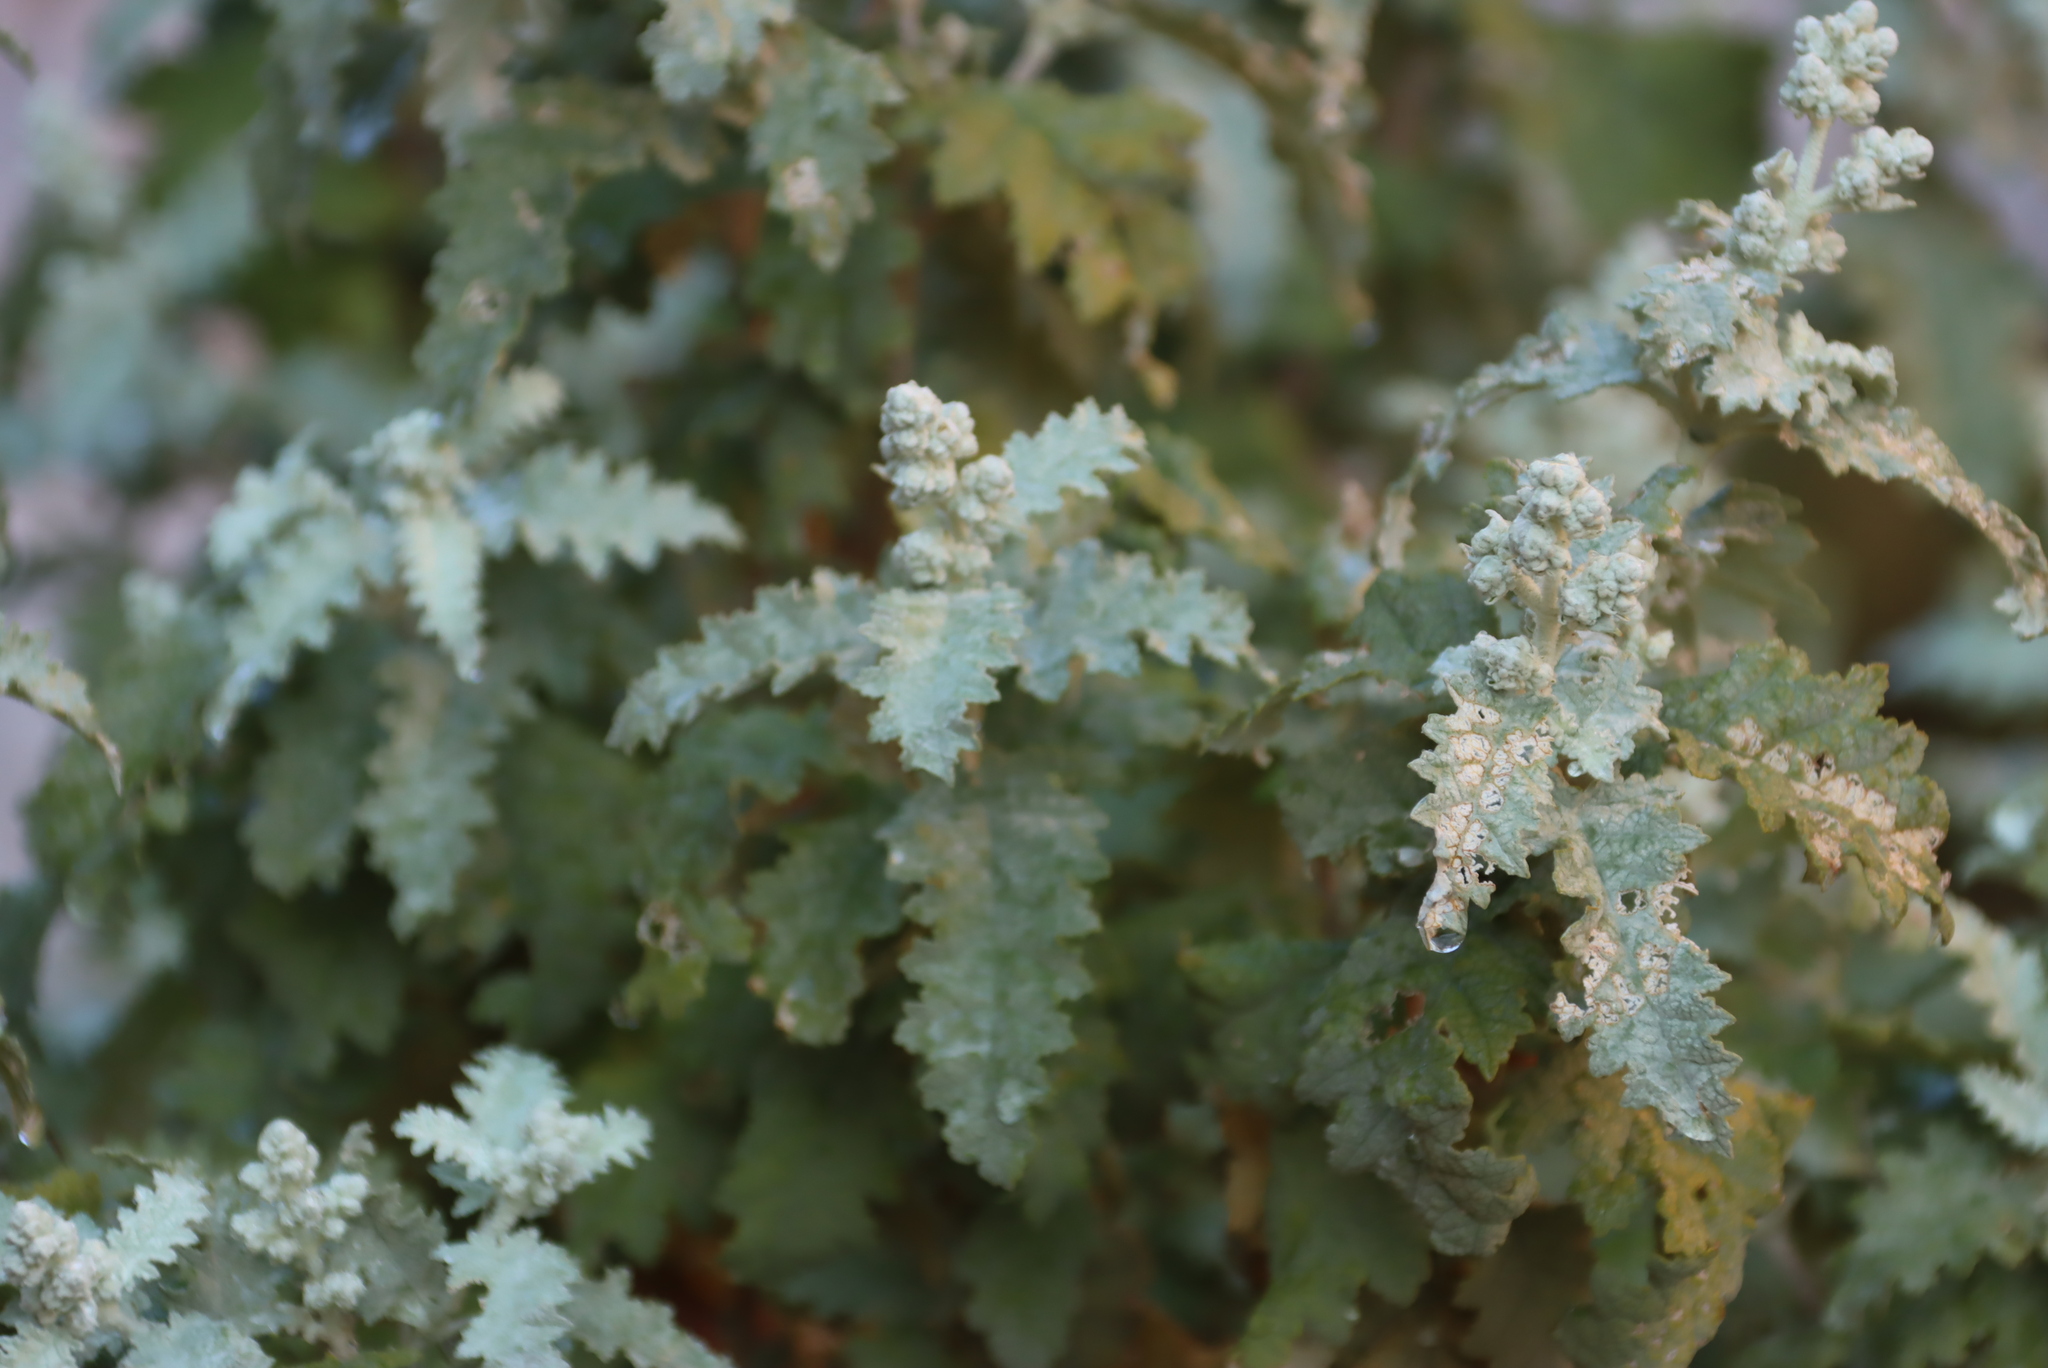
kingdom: Plantae
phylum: Tracheophyta
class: Magnoliopsida
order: Lamiales
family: Scrophulariaceae
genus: Buddleja
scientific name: Buddleja glomerata
